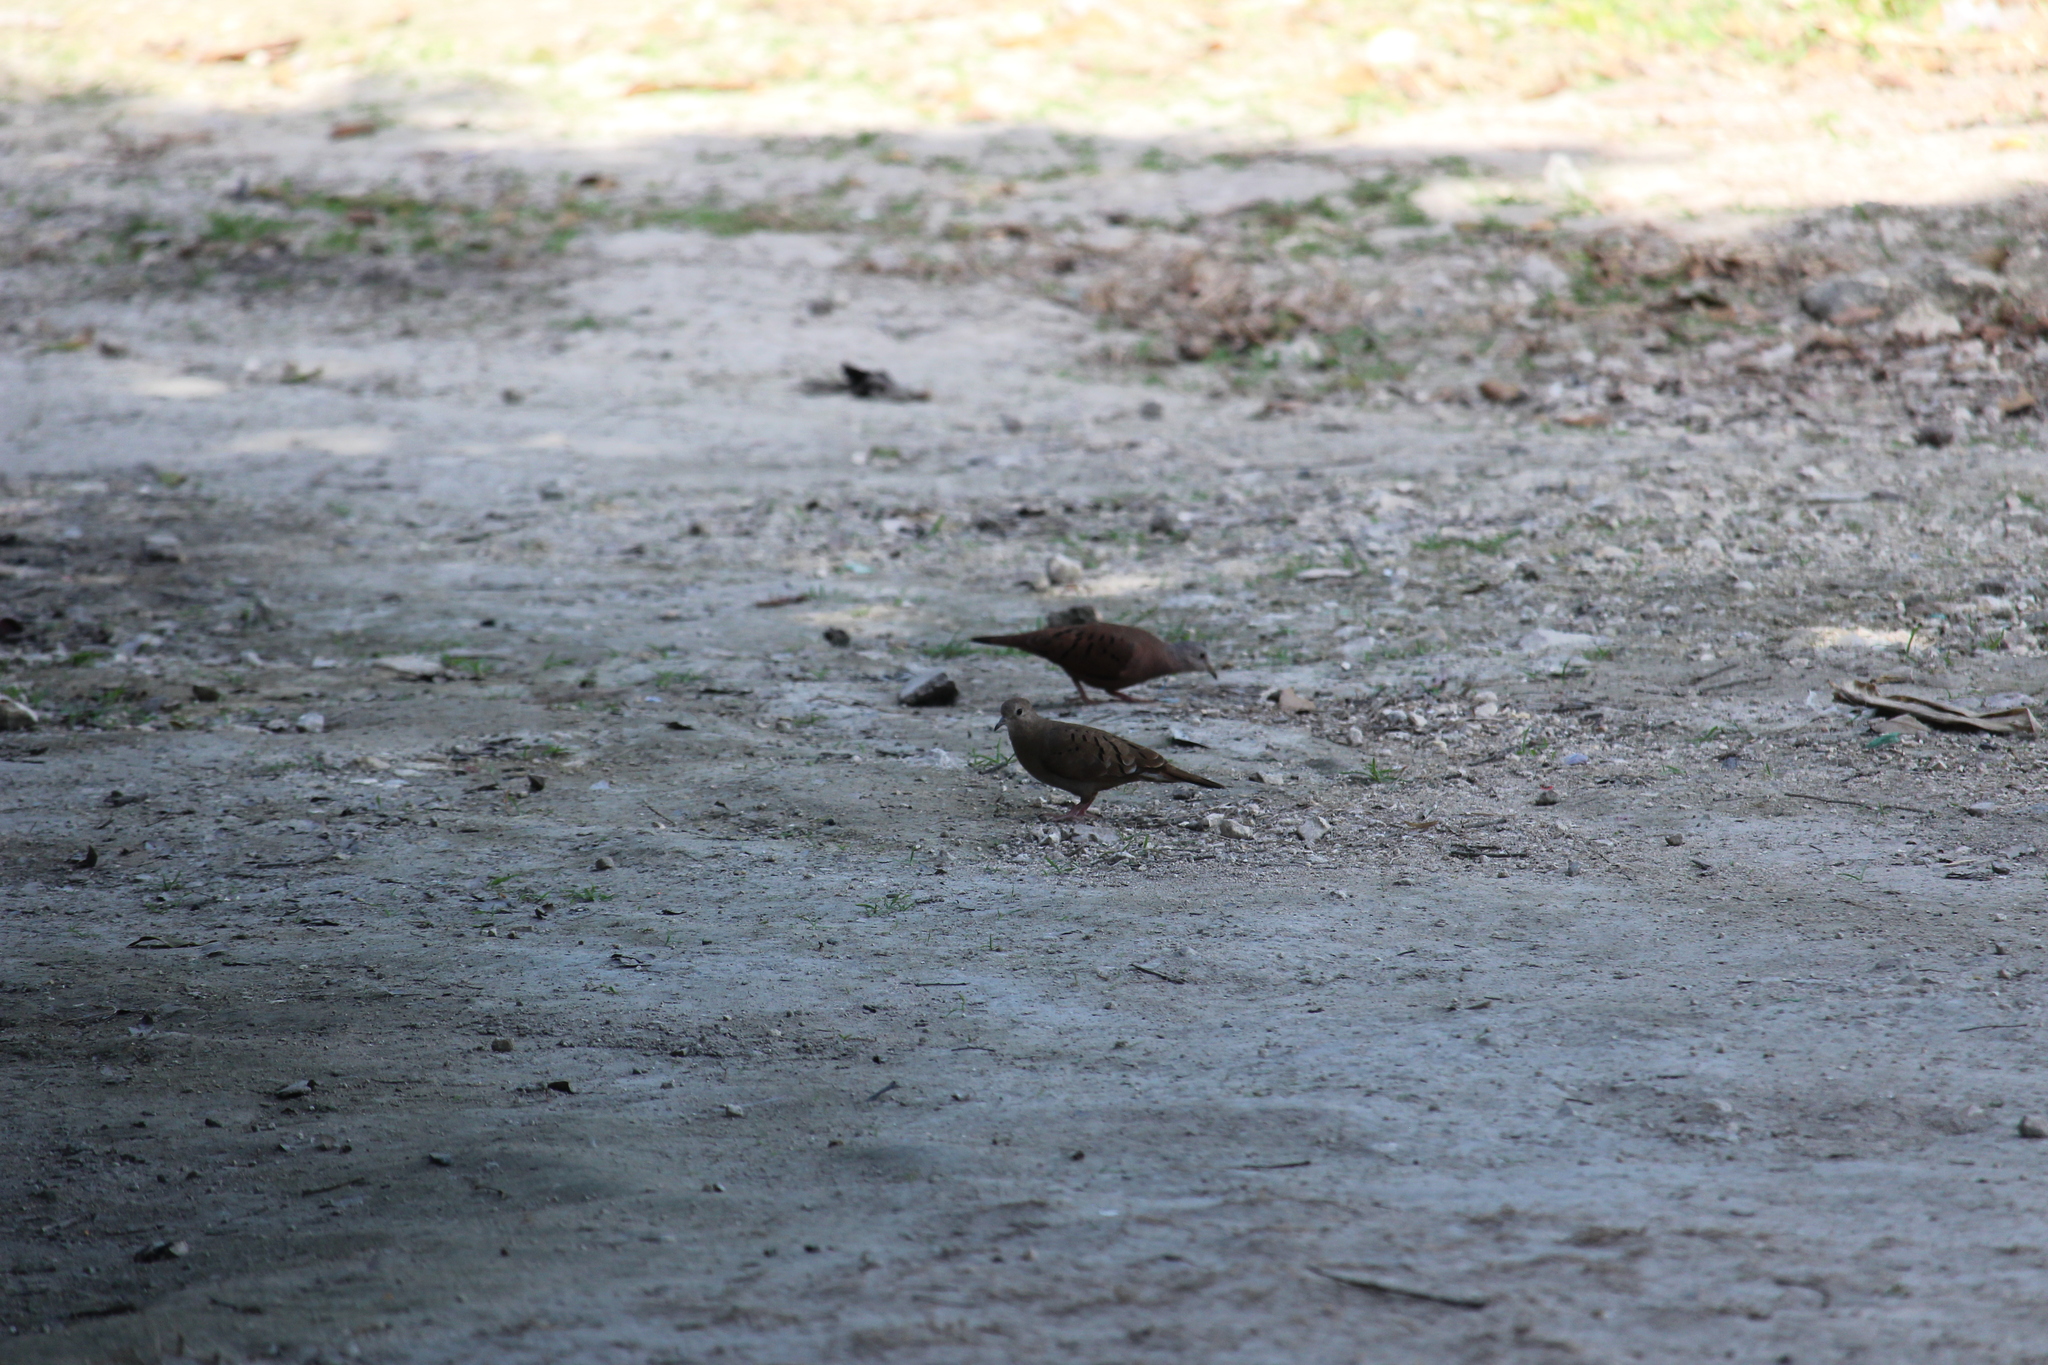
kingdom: Animalia
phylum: Chordata
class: Aves
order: Columbiformes
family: Columbidae
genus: Columbina
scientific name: Columbina talpacoti
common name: Ruddy ground dove
